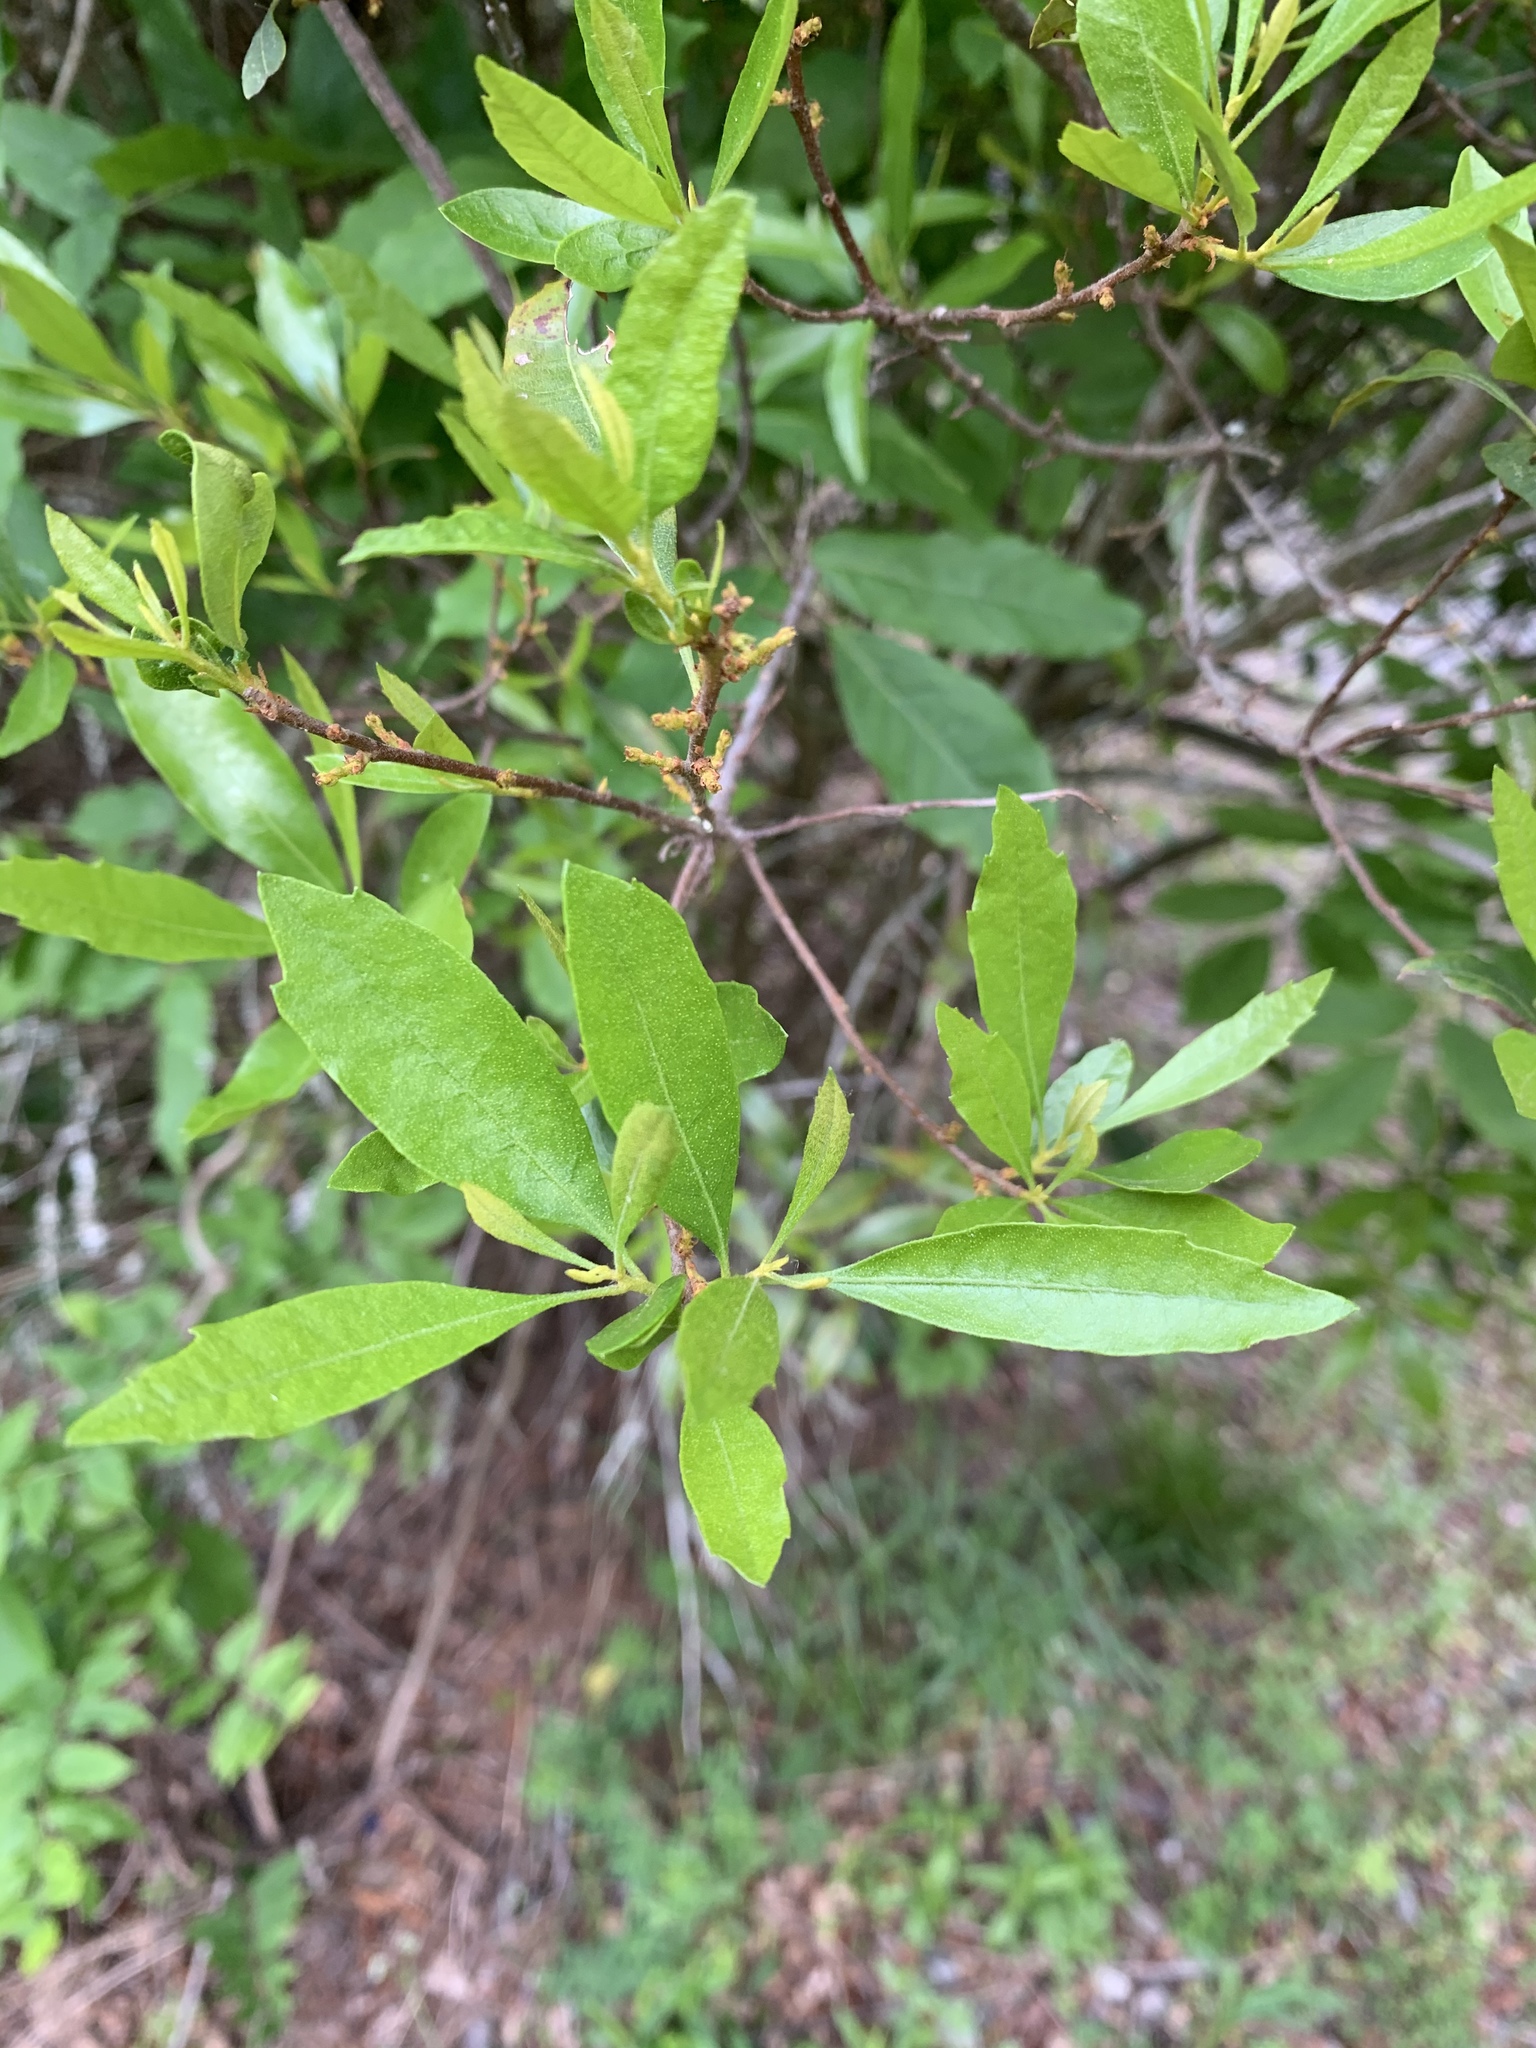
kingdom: Plantae
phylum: Tracheophyta
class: Magnoliopsida
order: Fagales
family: Myricaceae
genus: Morella
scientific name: Morella cerifera
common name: Wax myrtle
